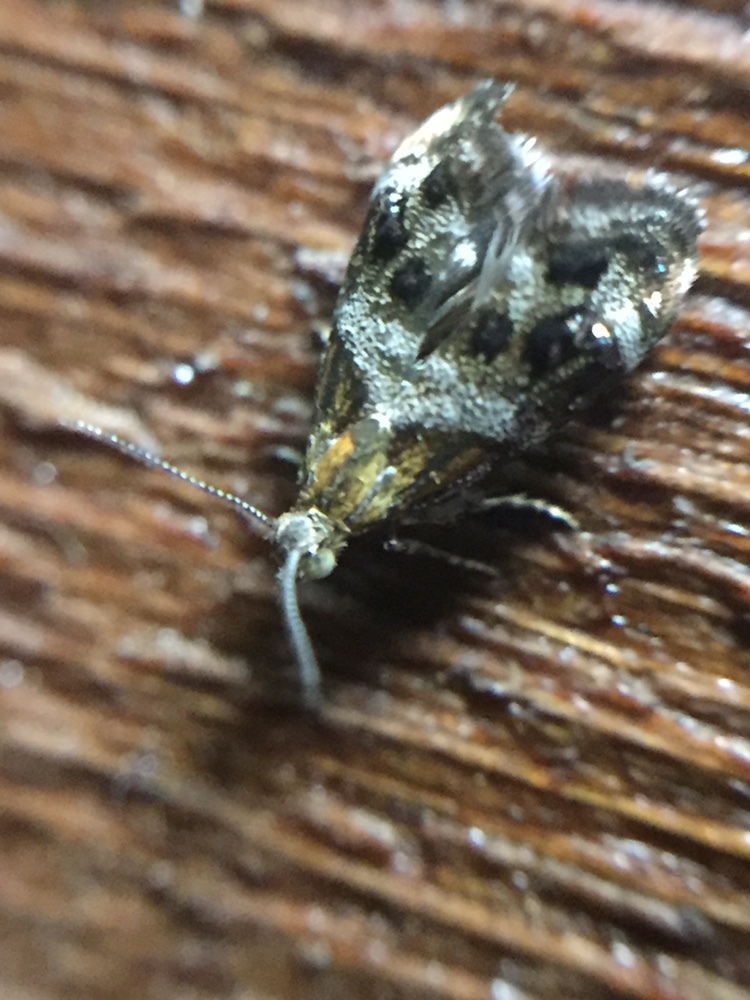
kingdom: Animalia
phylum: Arthropoda
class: Insecta
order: Lepidoptera
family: Choreutidae
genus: Tebenna
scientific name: Tebenna micalis
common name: Vagrant twitcher
